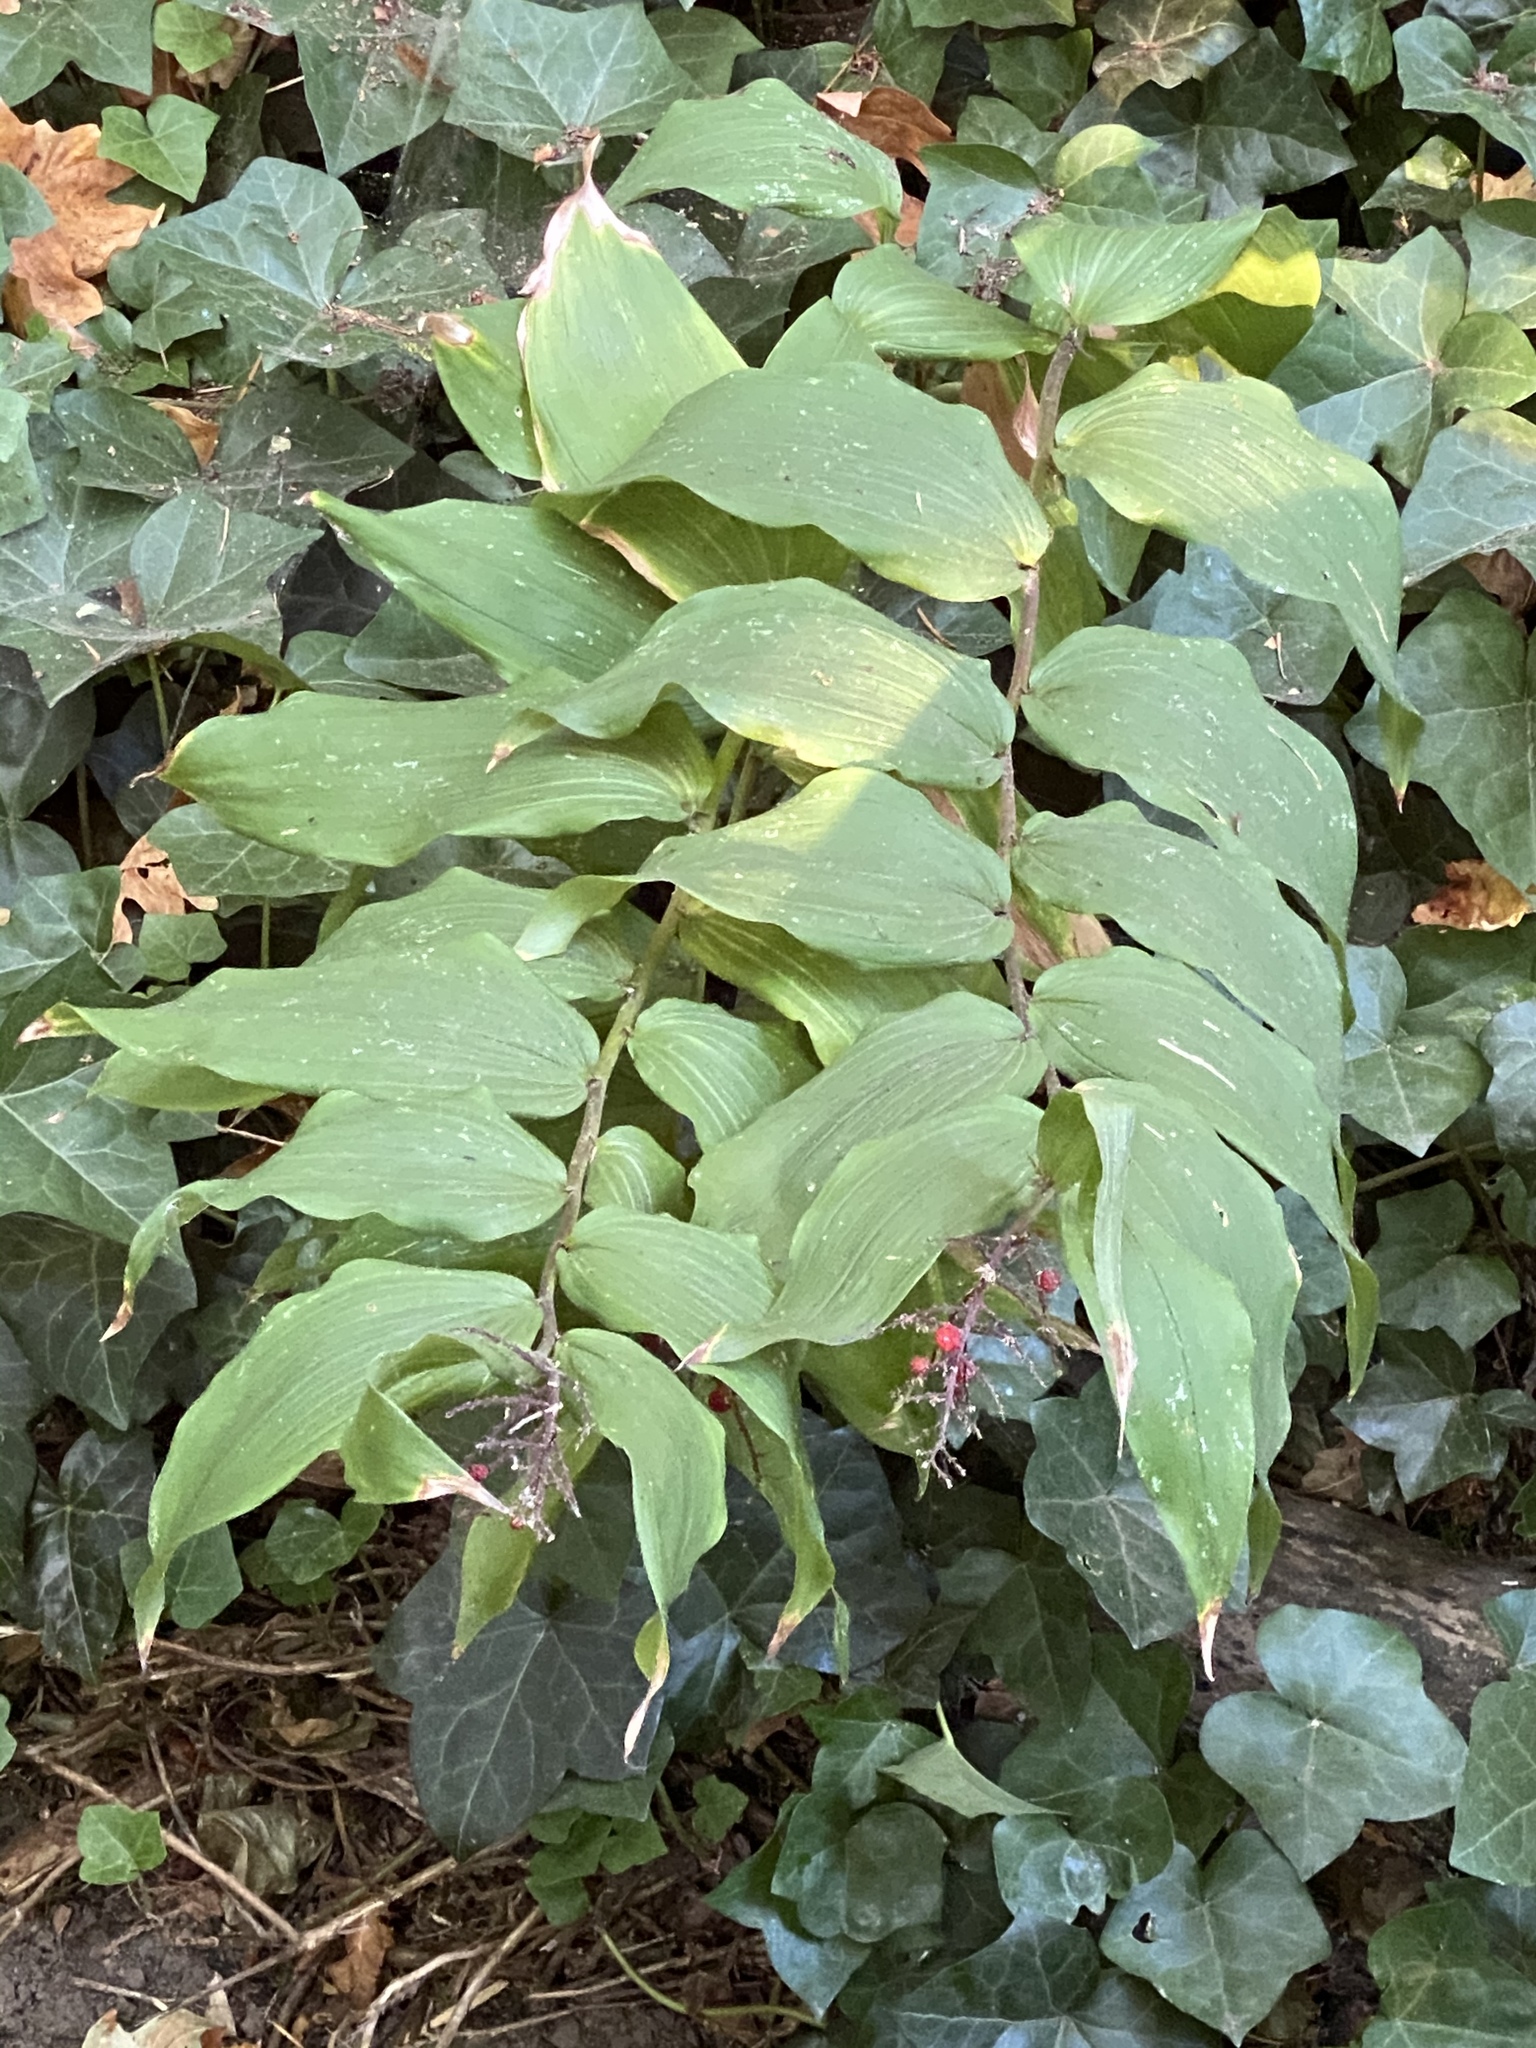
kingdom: Plantae
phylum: Tracheophyta
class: Liliopsida
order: Asparagales
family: Asparagaceae
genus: Maianthemum
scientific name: Maianthemum racemosum
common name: False spikenard
